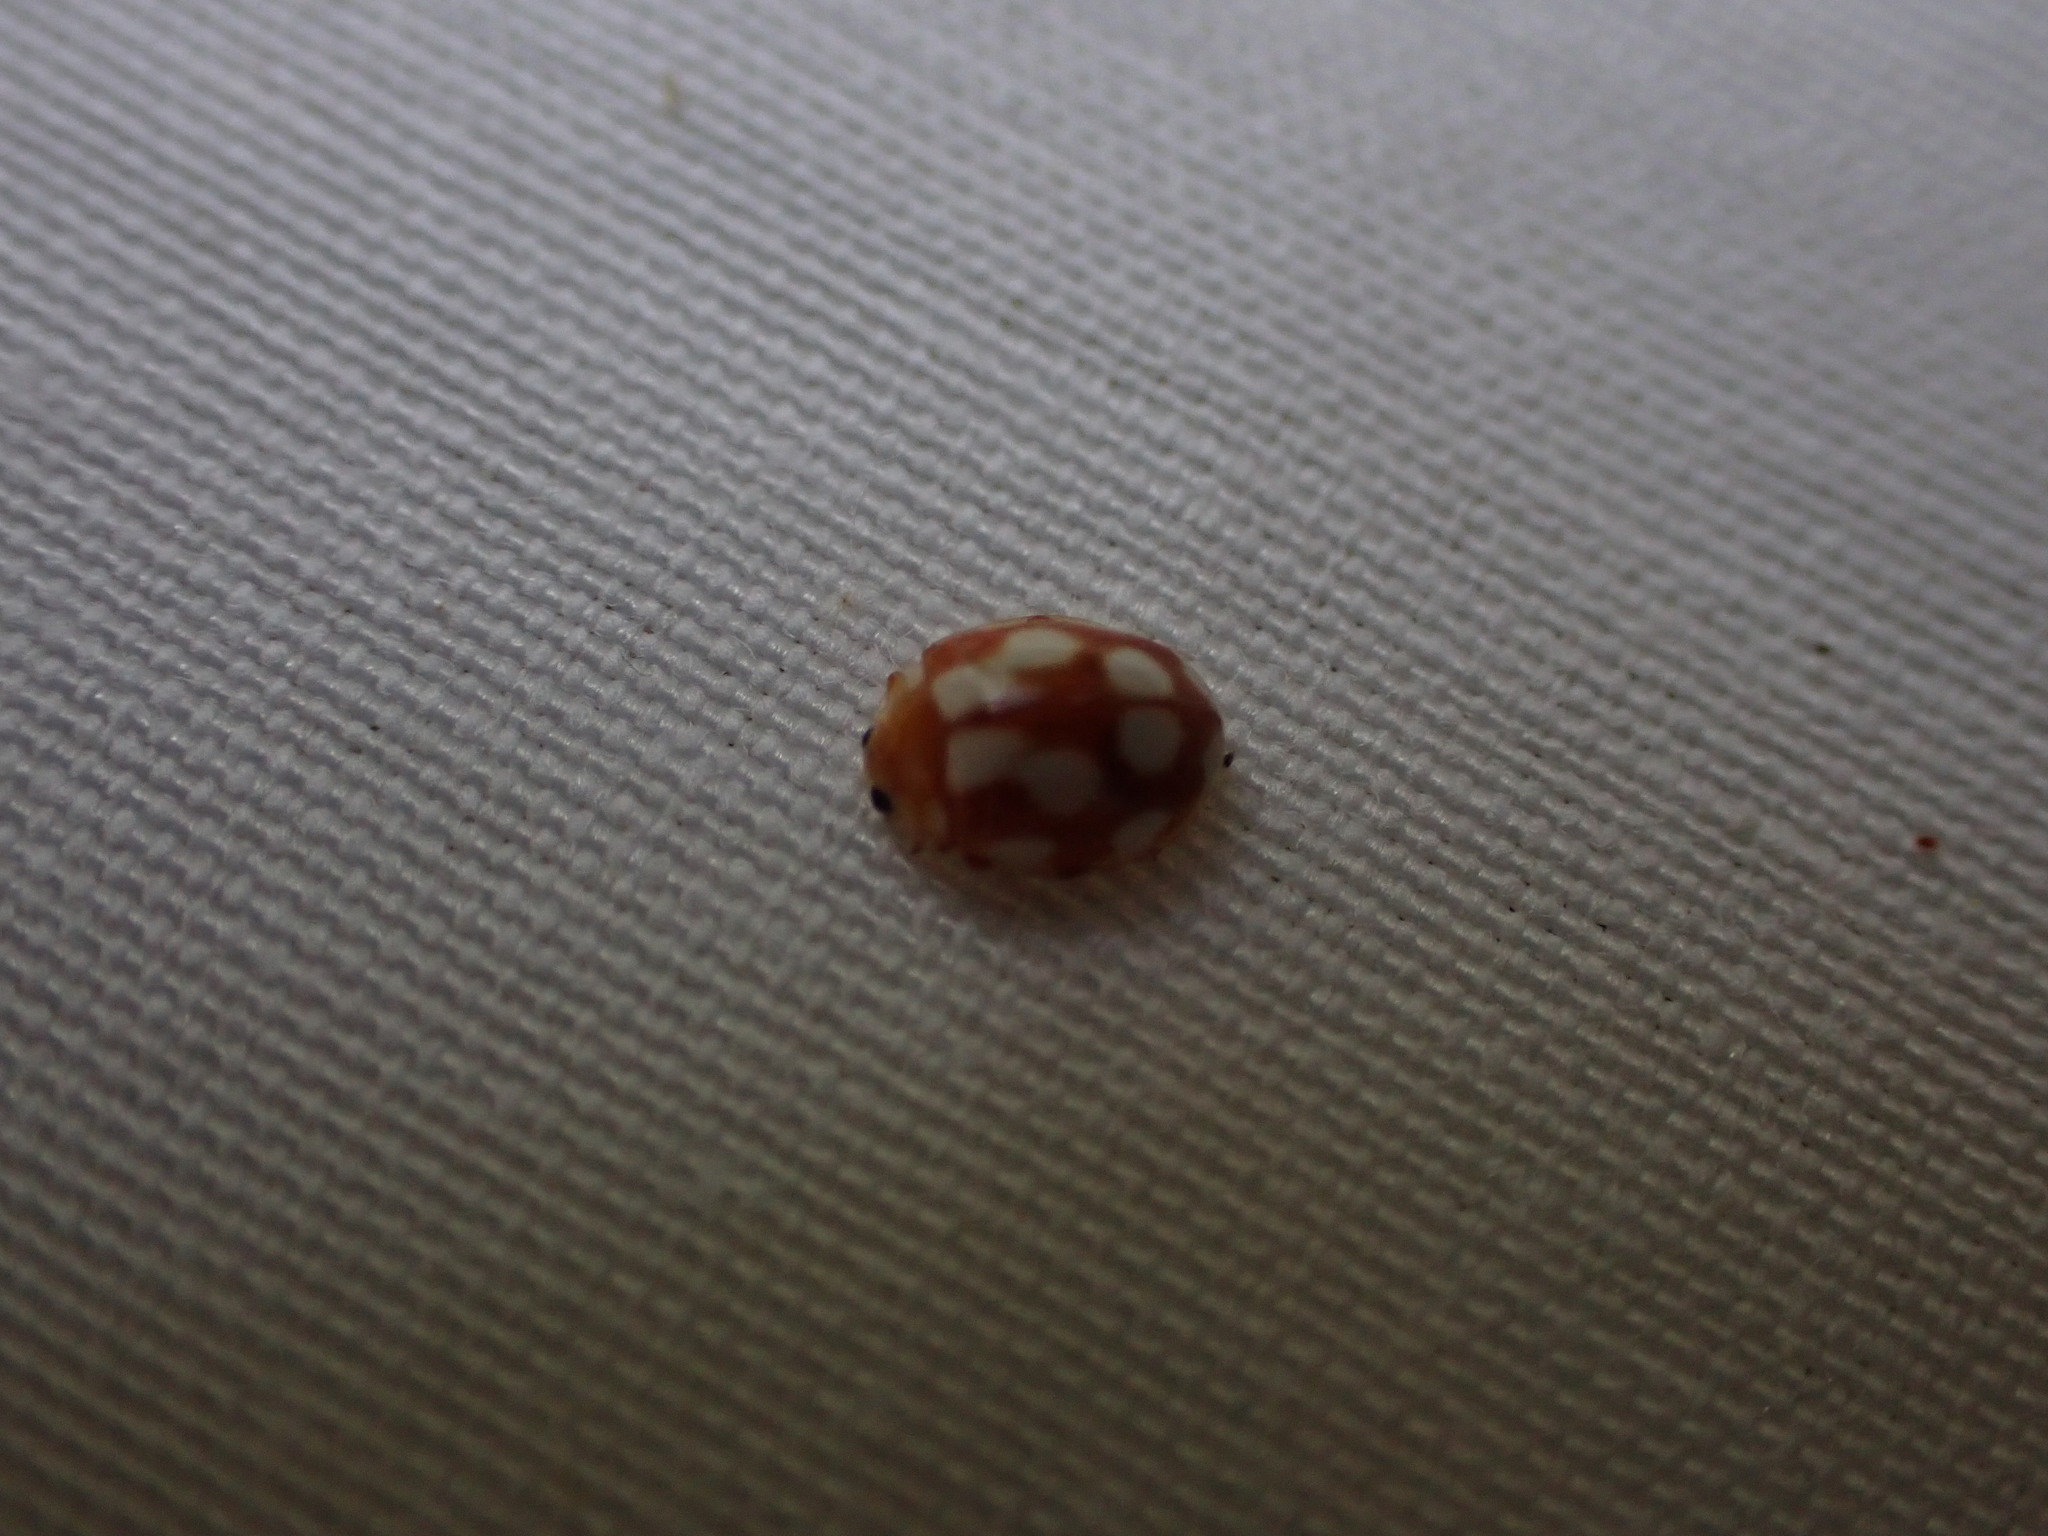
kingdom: Animalia
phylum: Arthropoda
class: Insecta
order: Coleoptera
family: Coccinellidae
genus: Vibidia
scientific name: Vibidia duodecimguttata
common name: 12-spot ladybird
